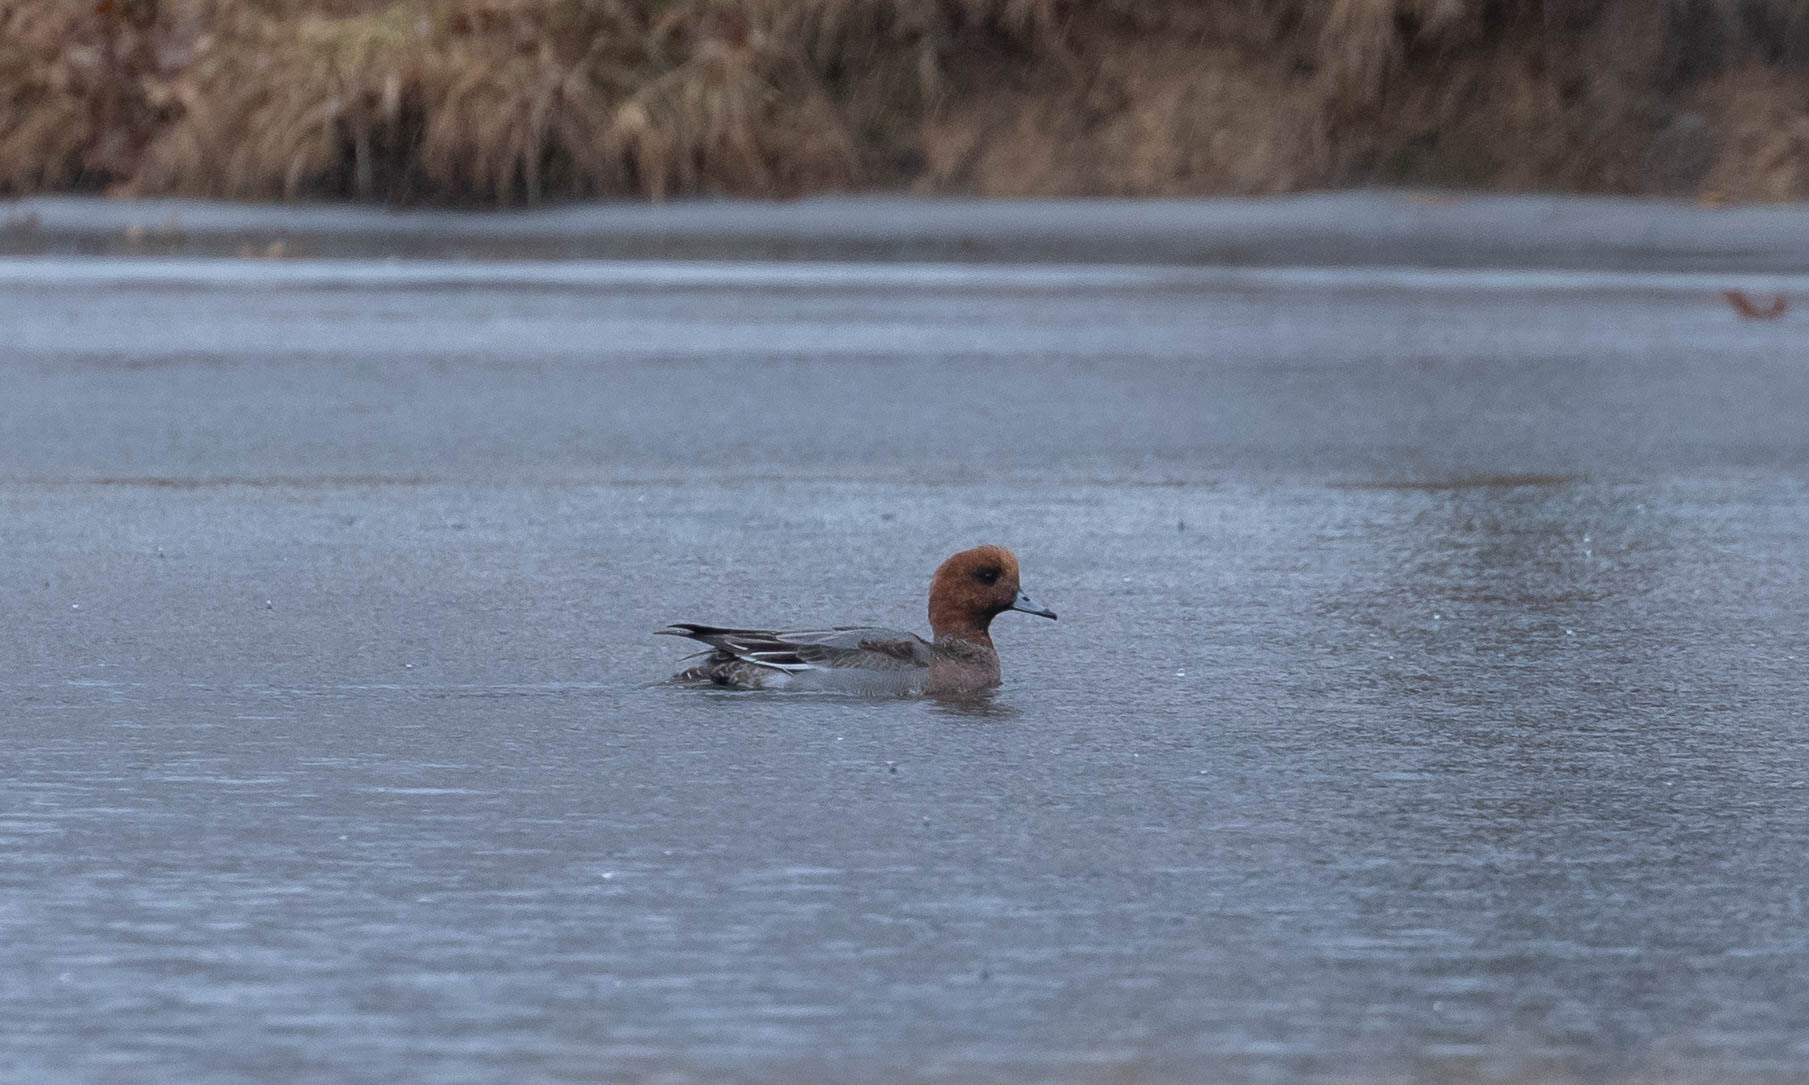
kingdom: Animalia
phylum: Chordata
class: Aves
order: Anseriformes
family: Anatidae
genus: Mareca
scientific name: Mareca penelope
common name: Eurasian wigeon
